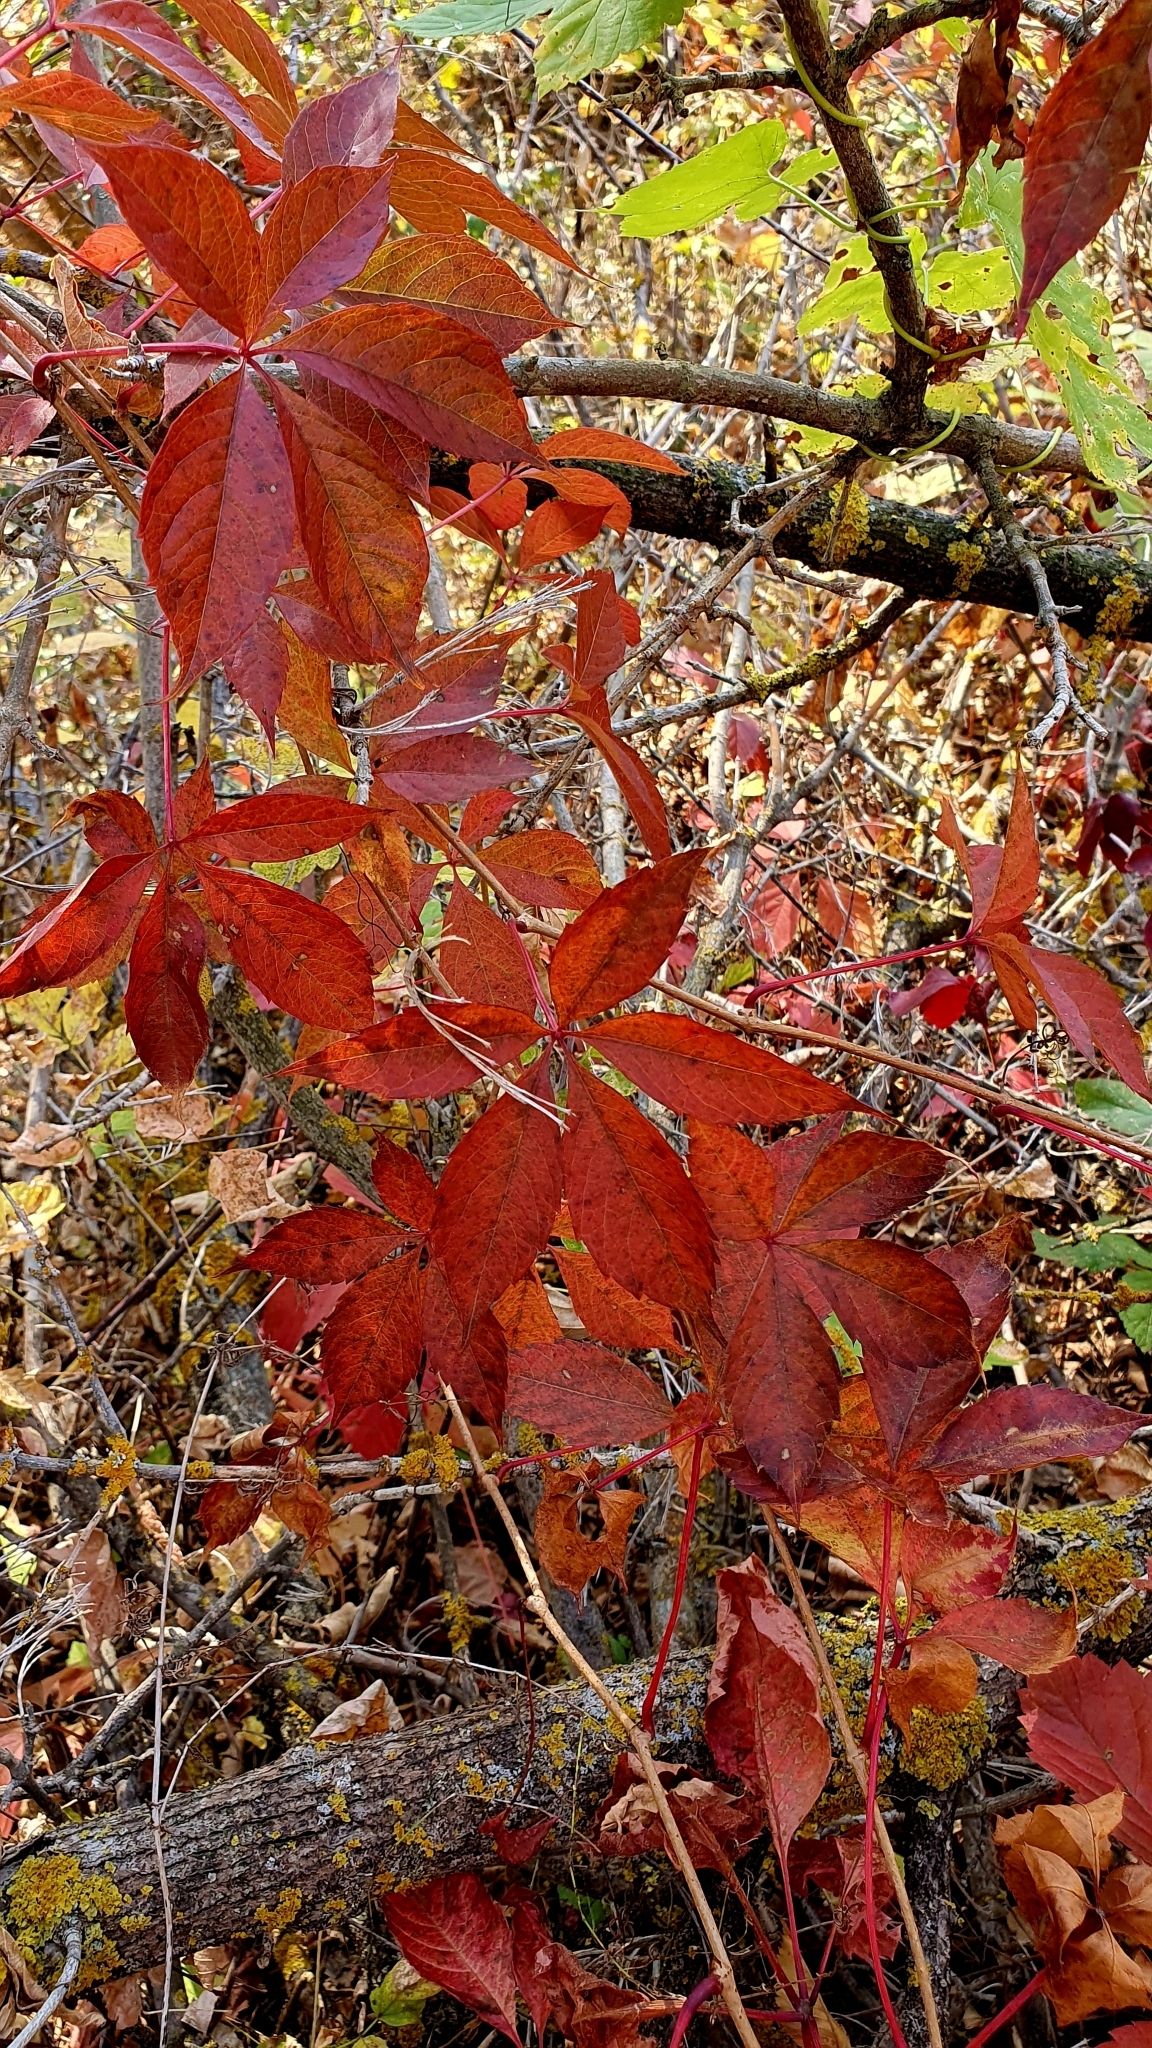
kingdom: Plantae
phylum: Tracheophyta
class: Magnoliopsida
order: Vitales
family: Vitaceae
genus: Parthenocissus
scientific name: Parthenocissus inserta
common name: False virginia-creeper
